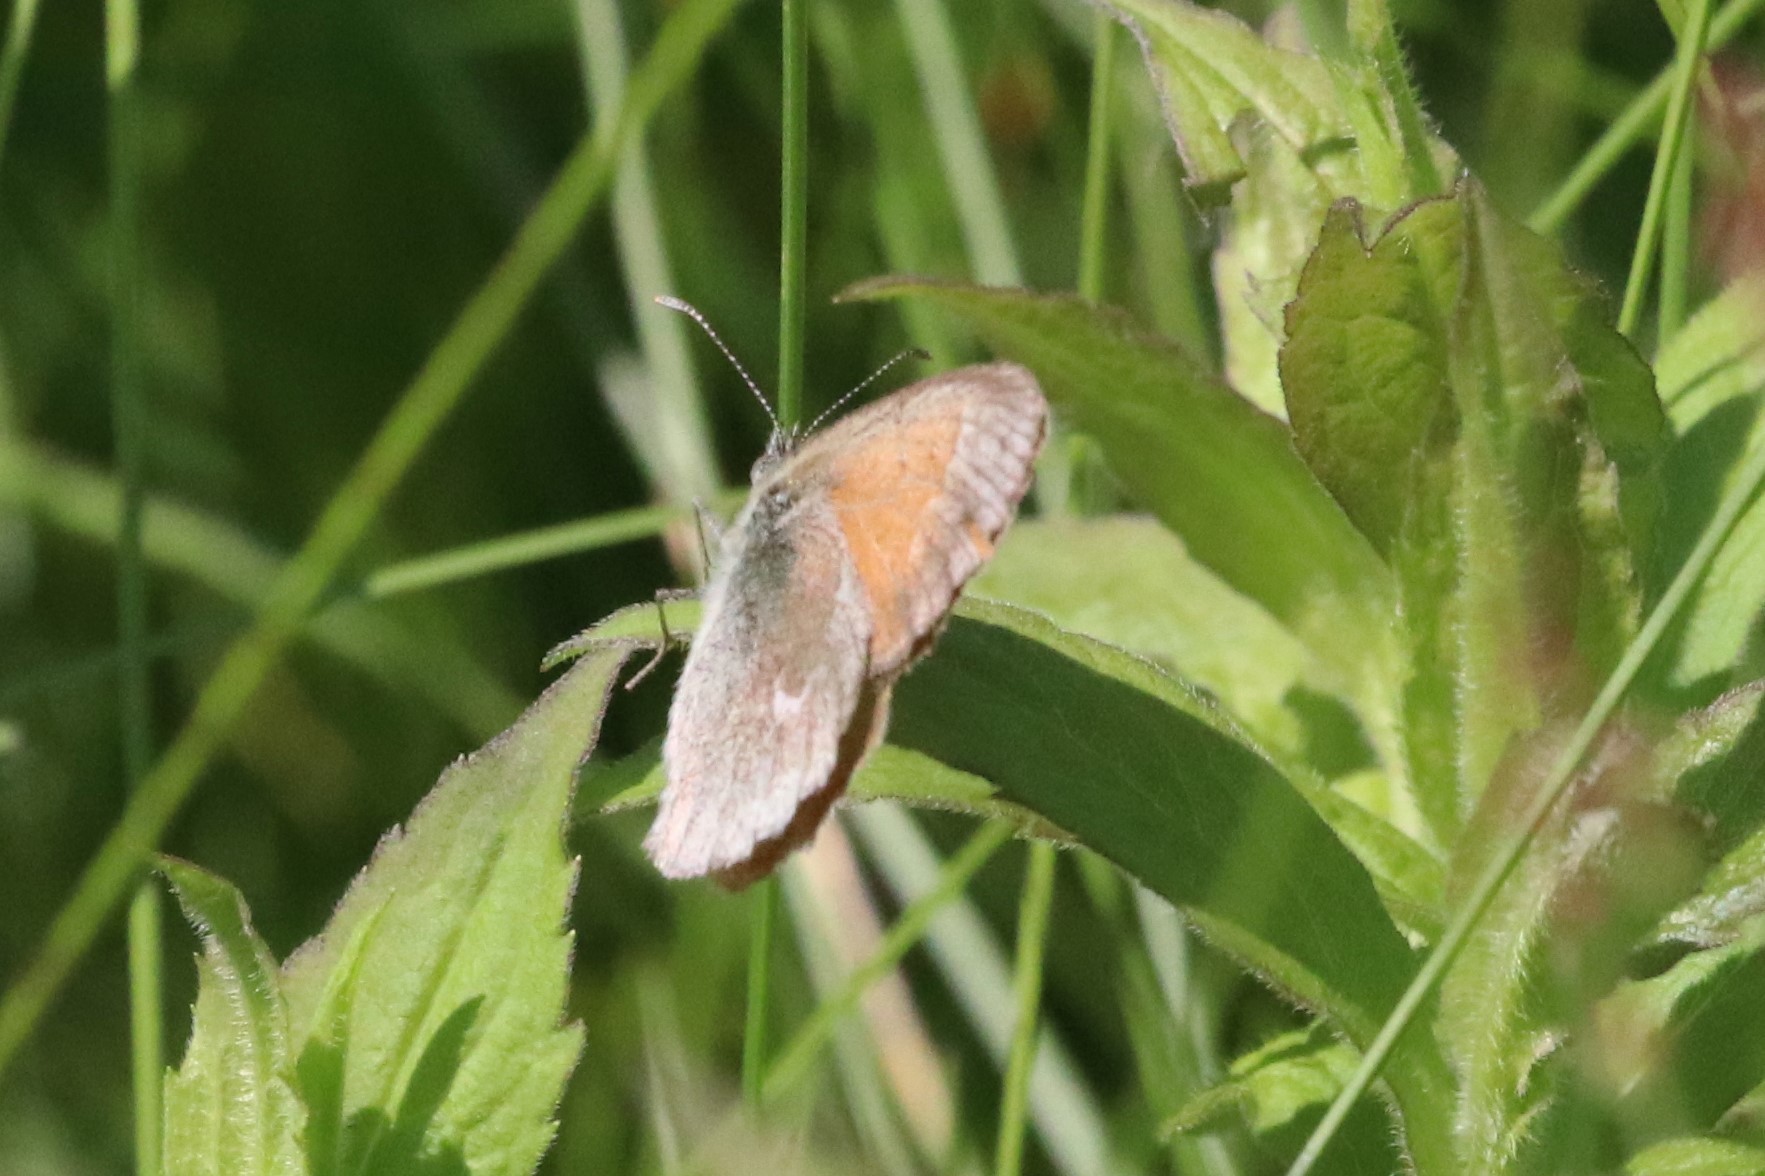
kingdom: Animalia
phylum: Arthropoda
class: Insecta
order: Lepidoptera
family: Nymphalidae
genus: Coenonympha
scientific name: Coenonympha california
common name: Common ringlet
